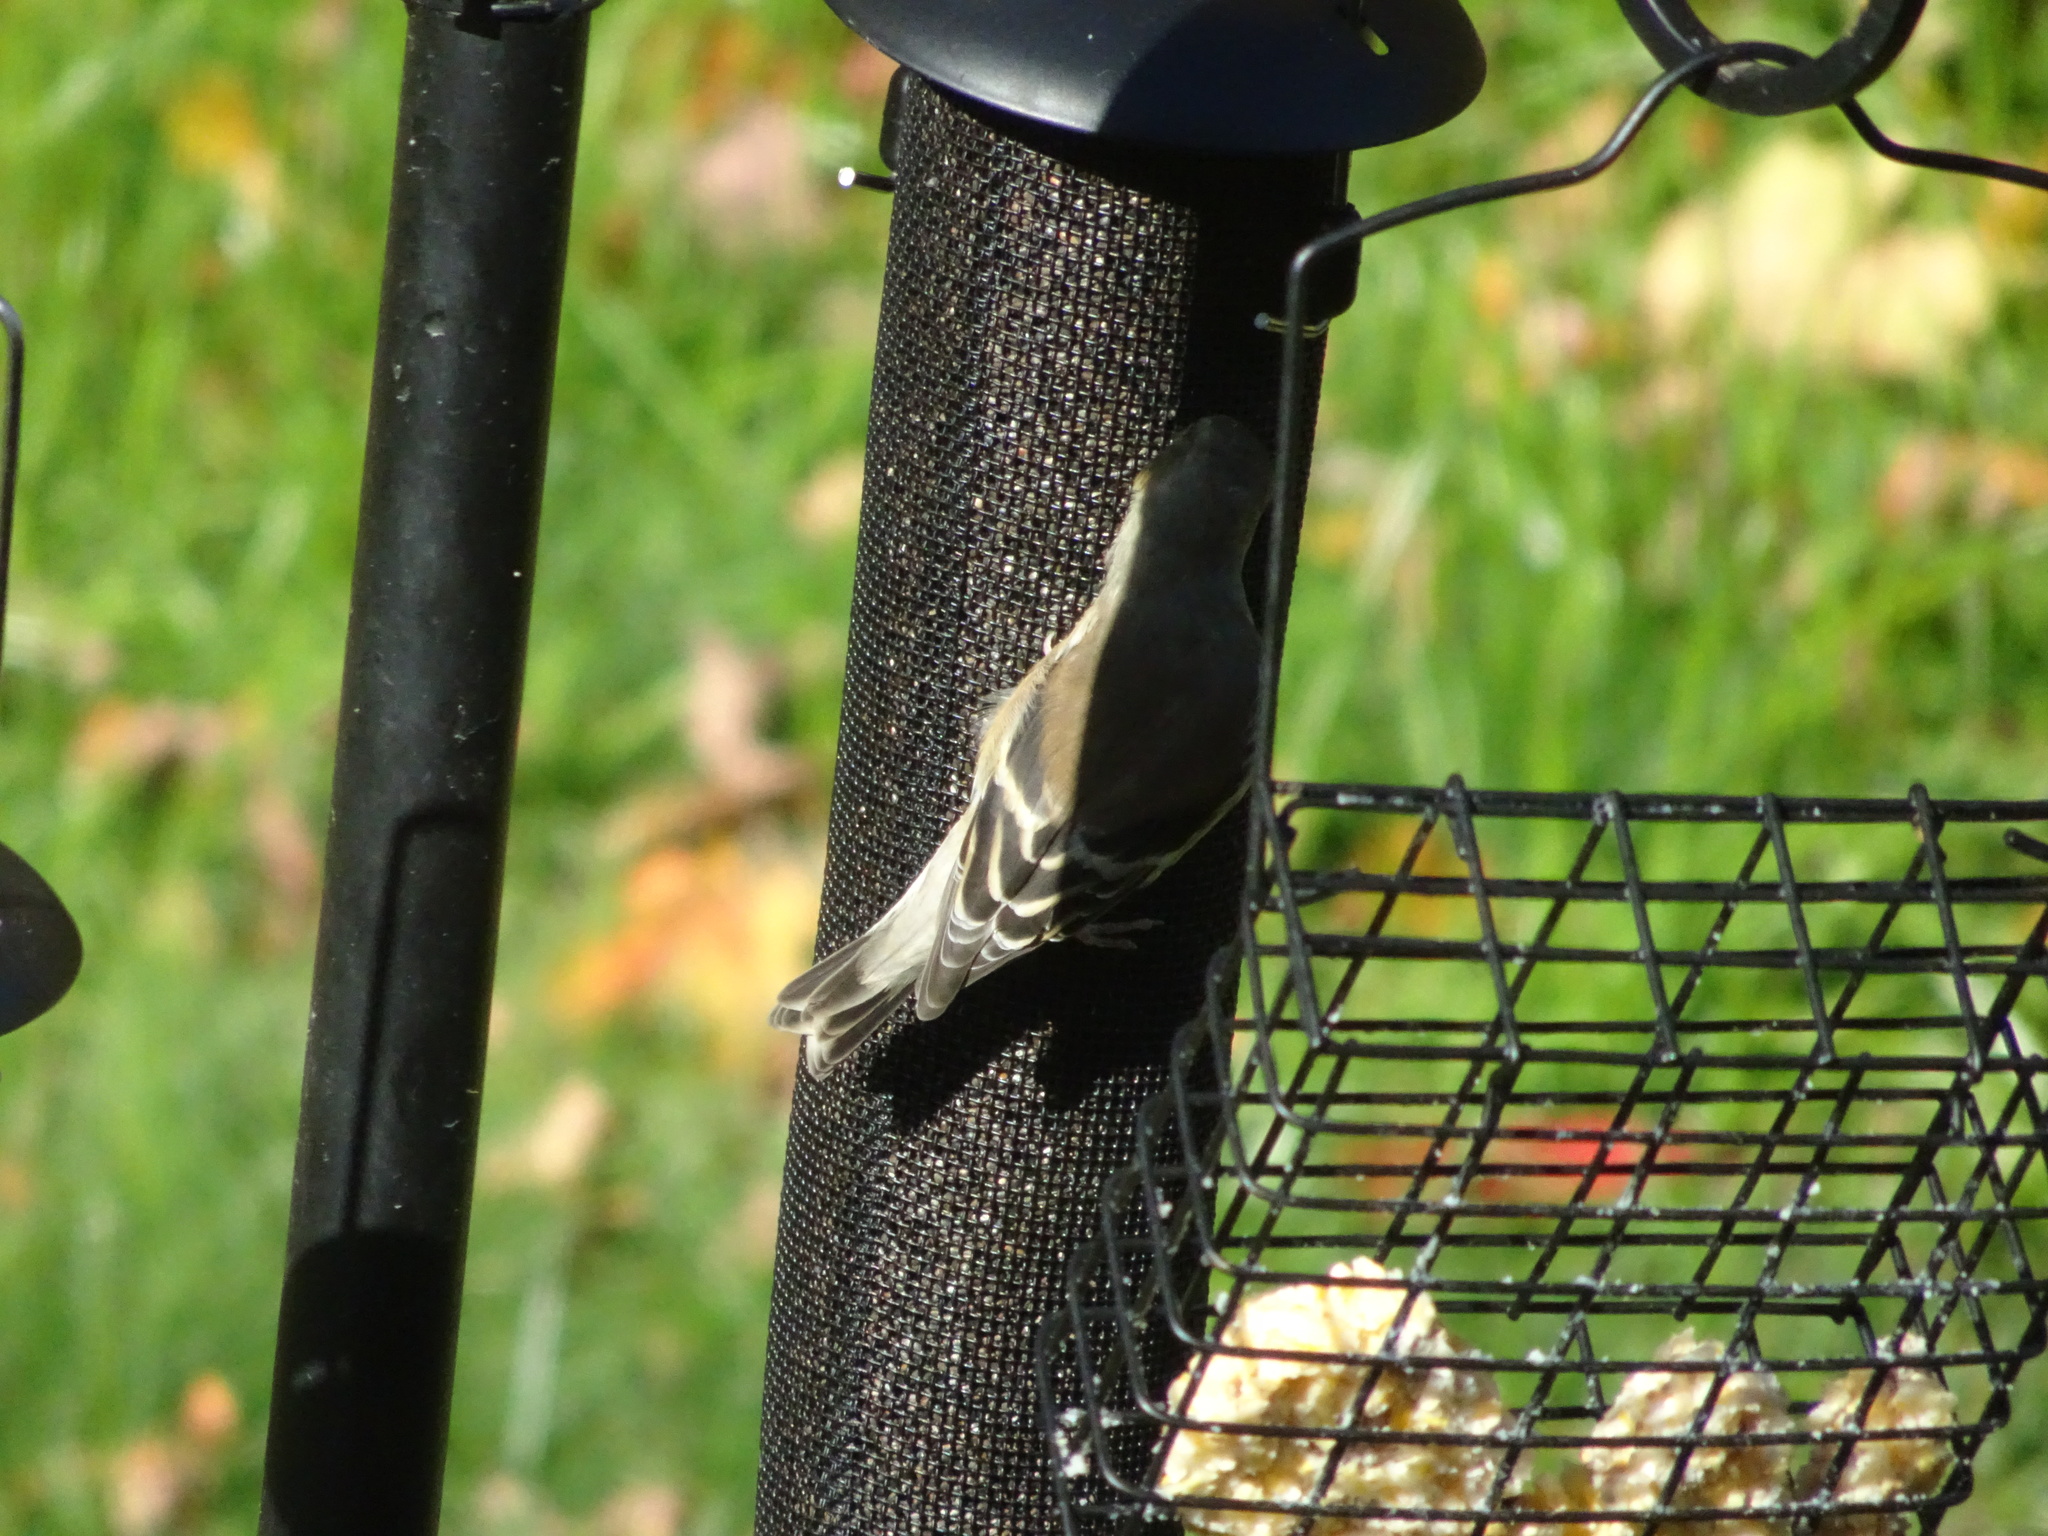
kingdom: Animalia
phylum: Chordata
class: Aves
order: Passeriformes
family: Fringillidae
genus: Spinus
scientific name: Spinus tristis
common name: American goldfinch
